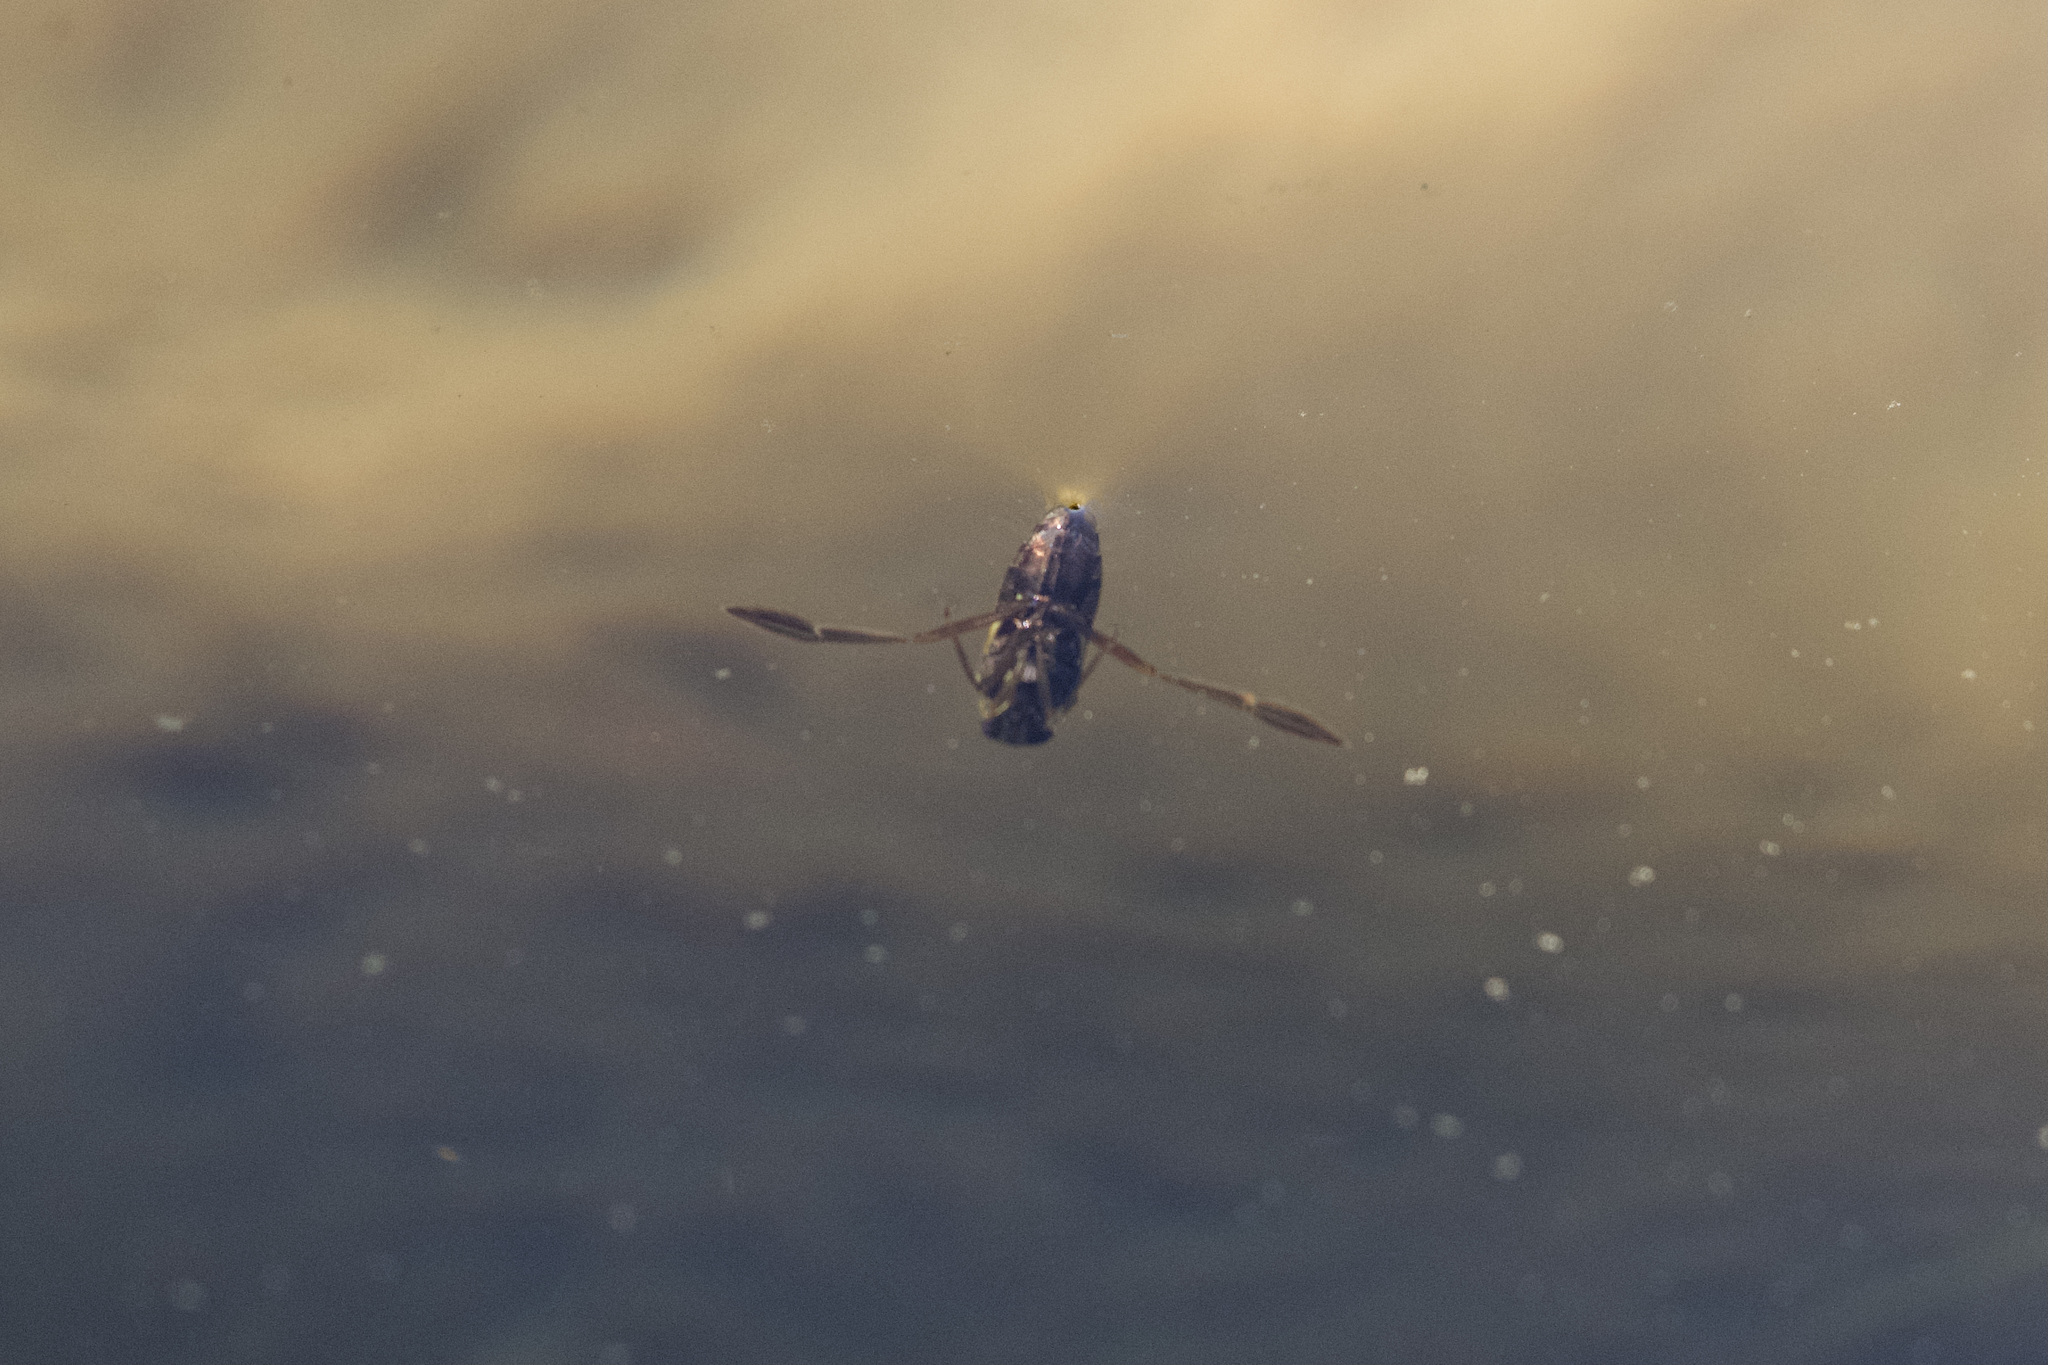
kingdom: Animalia
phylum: Arthropoda
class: Insecta
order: Hemiptera
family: Notonectidae
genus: Notonecta
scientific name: Notonecta
